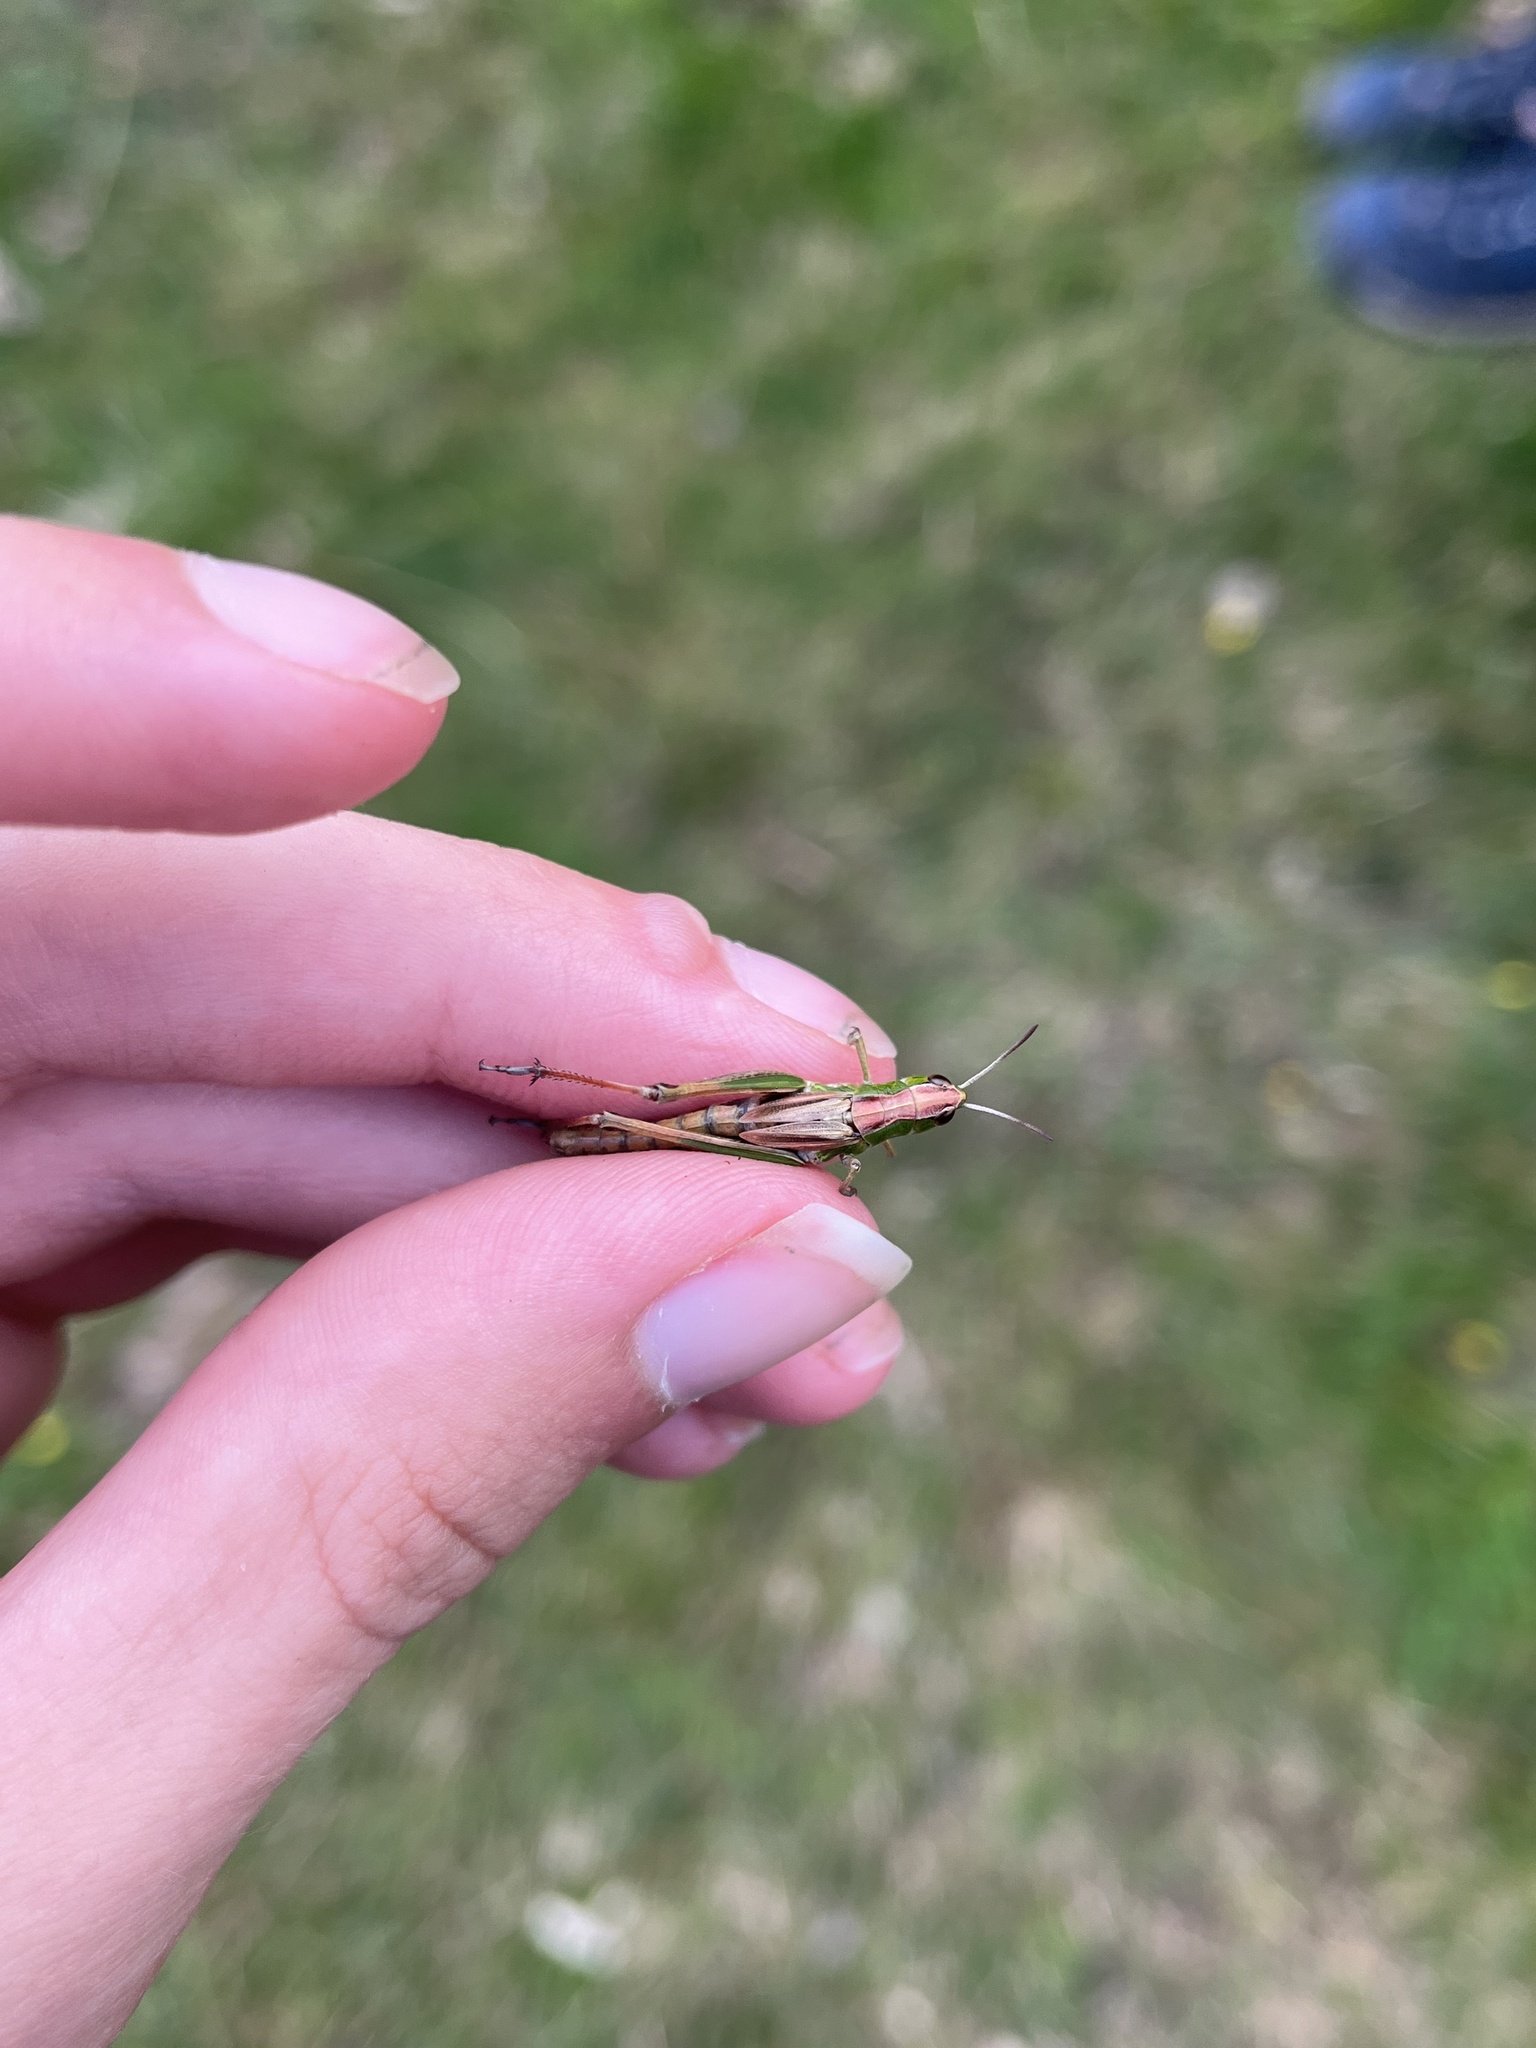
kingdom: Animalia
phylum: Arthropoda
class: Insecta
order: Orthoptera
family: Acrididae
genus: Pseudochorthippus
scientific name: Pseudochorthippus parallelus
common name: Meadow grasshopper
